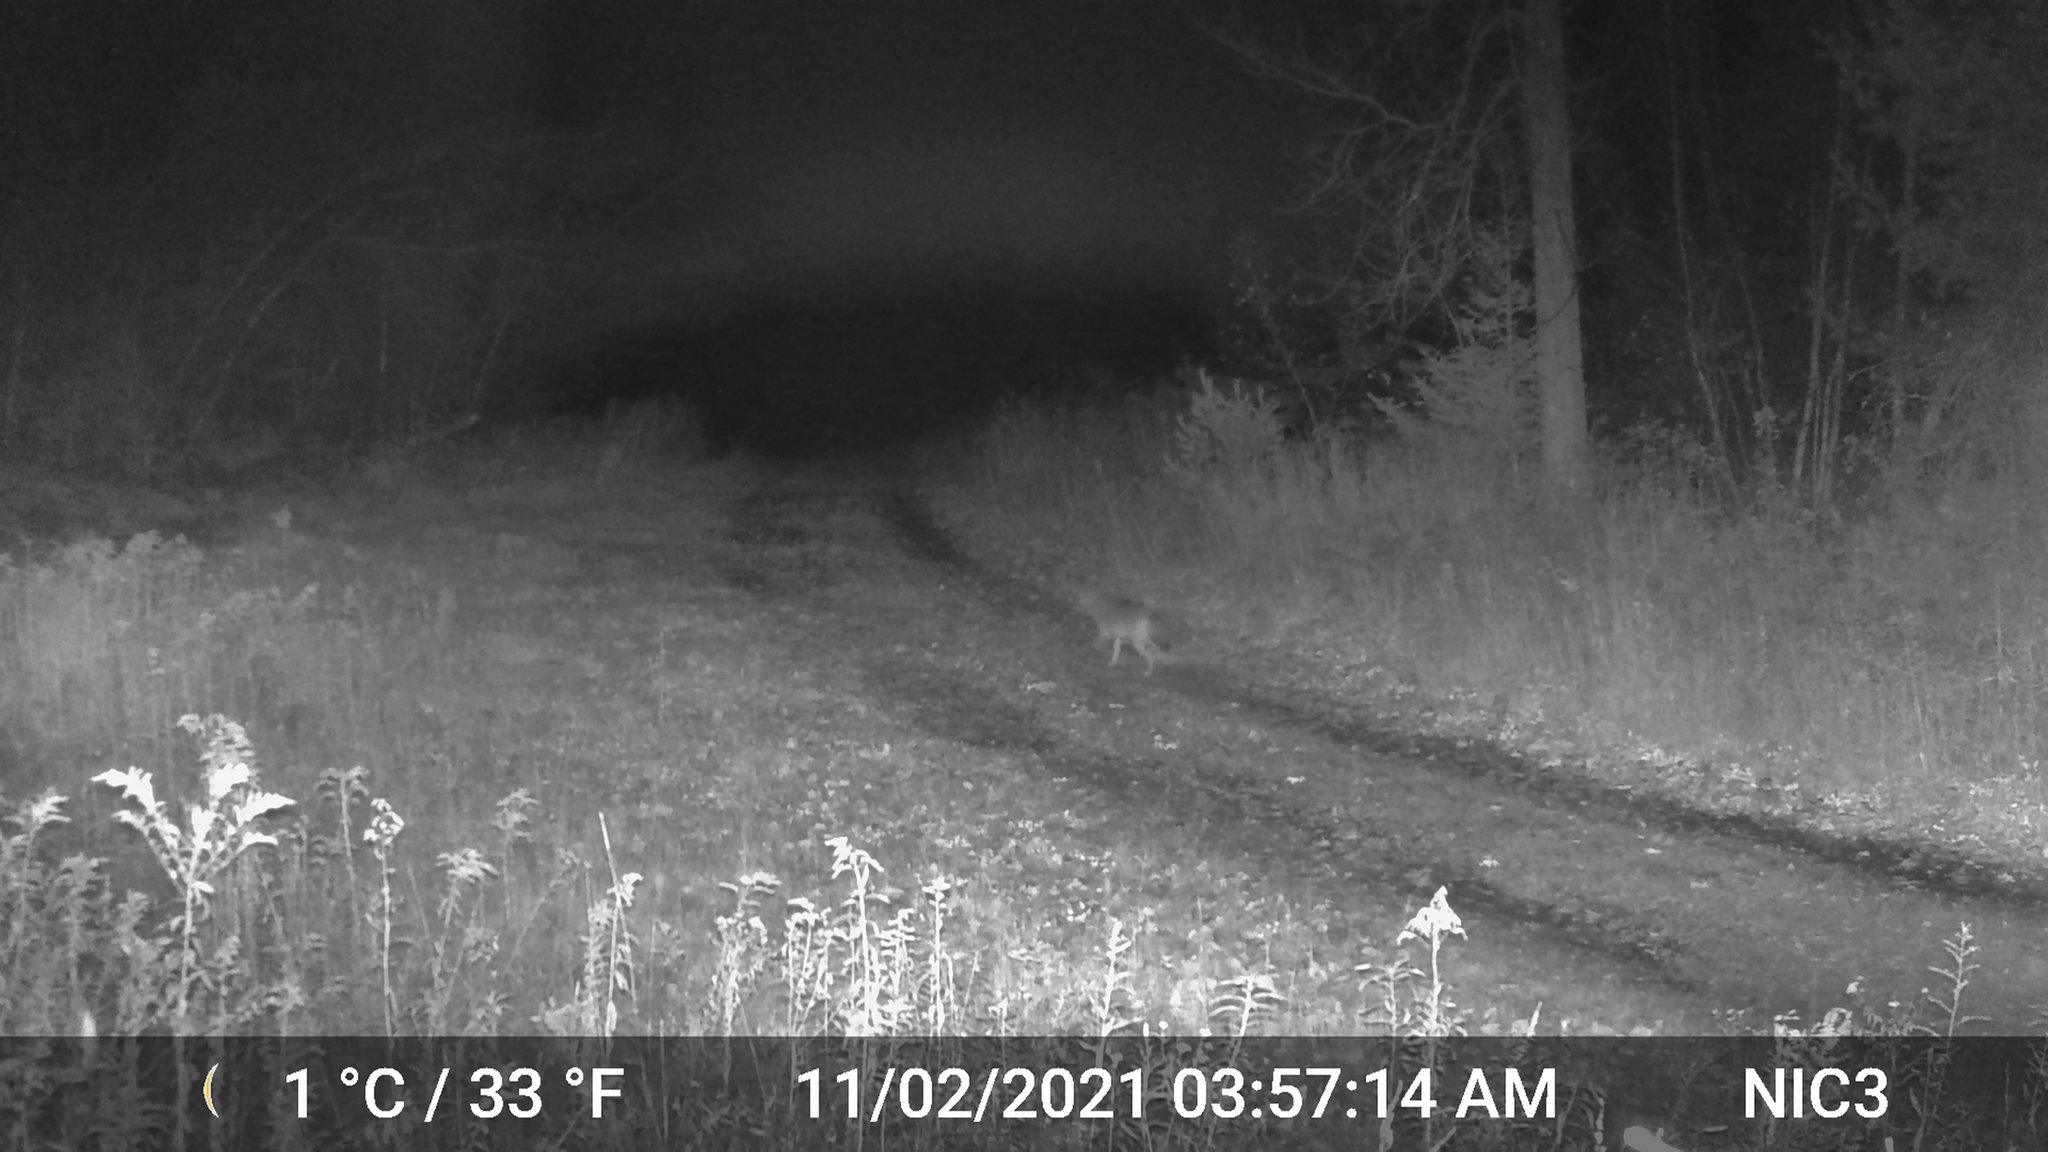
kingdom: Animalia
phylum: Chordata
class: Mammalia
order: Carnivora
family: Canidae
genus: Canis
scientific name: Canis latrans
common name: Coyote
